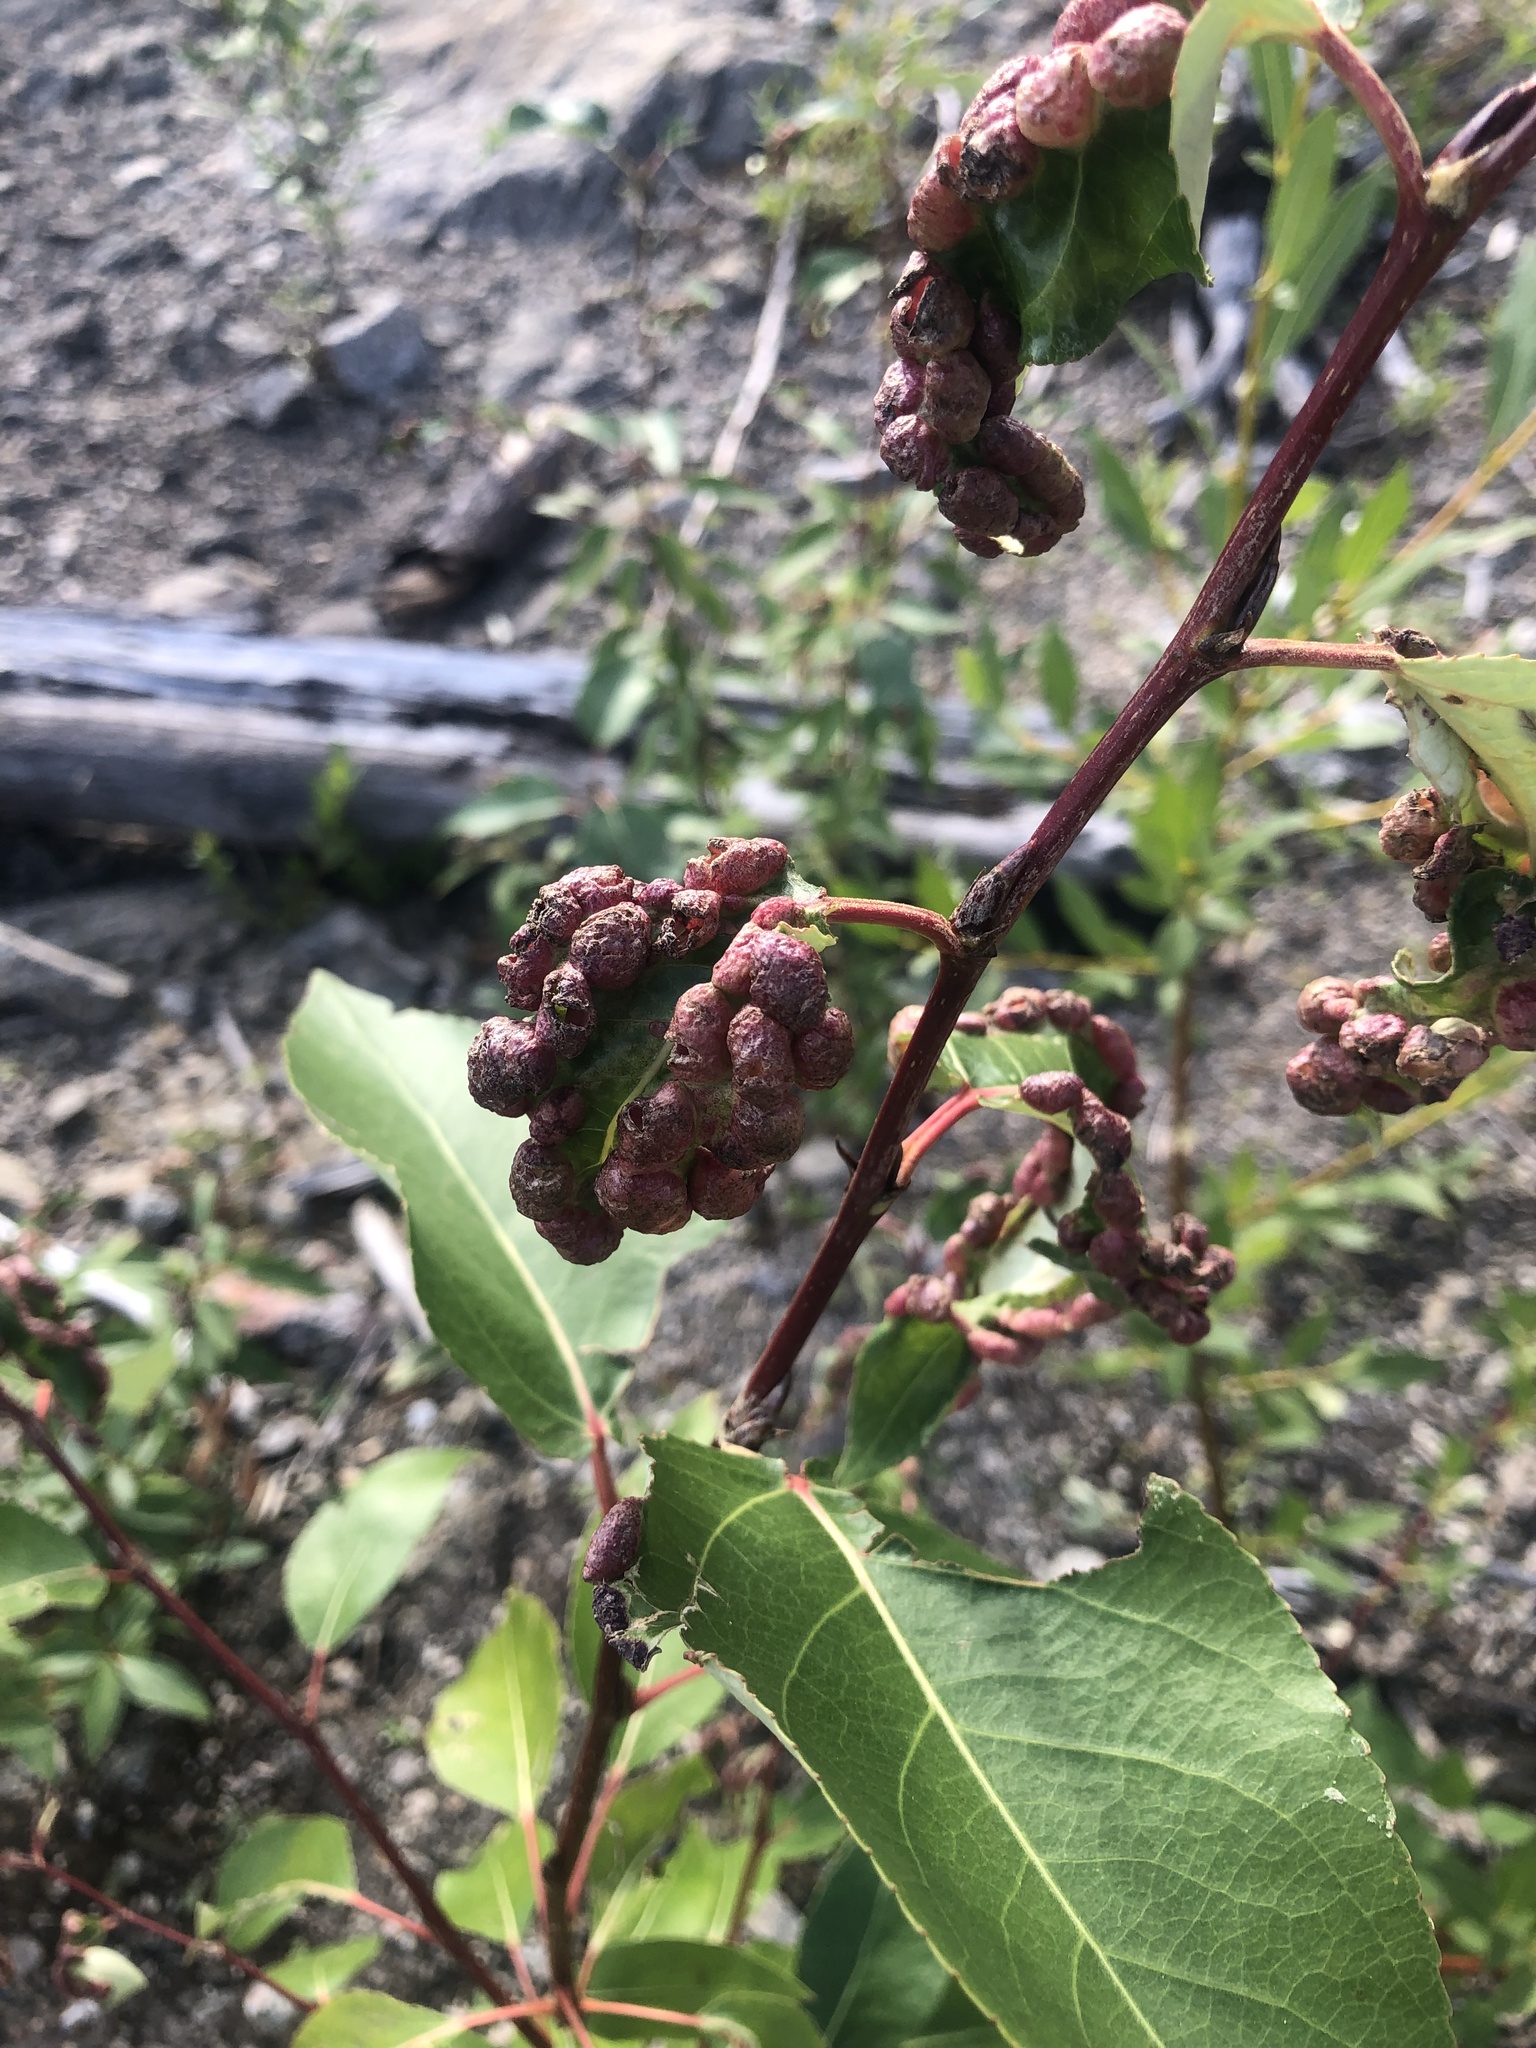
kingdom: Animalia
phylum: Arthropoda
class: Insecta
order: Hemiptera
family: Aphididae
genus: Thecabius
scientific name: Thecabius populimonilis
